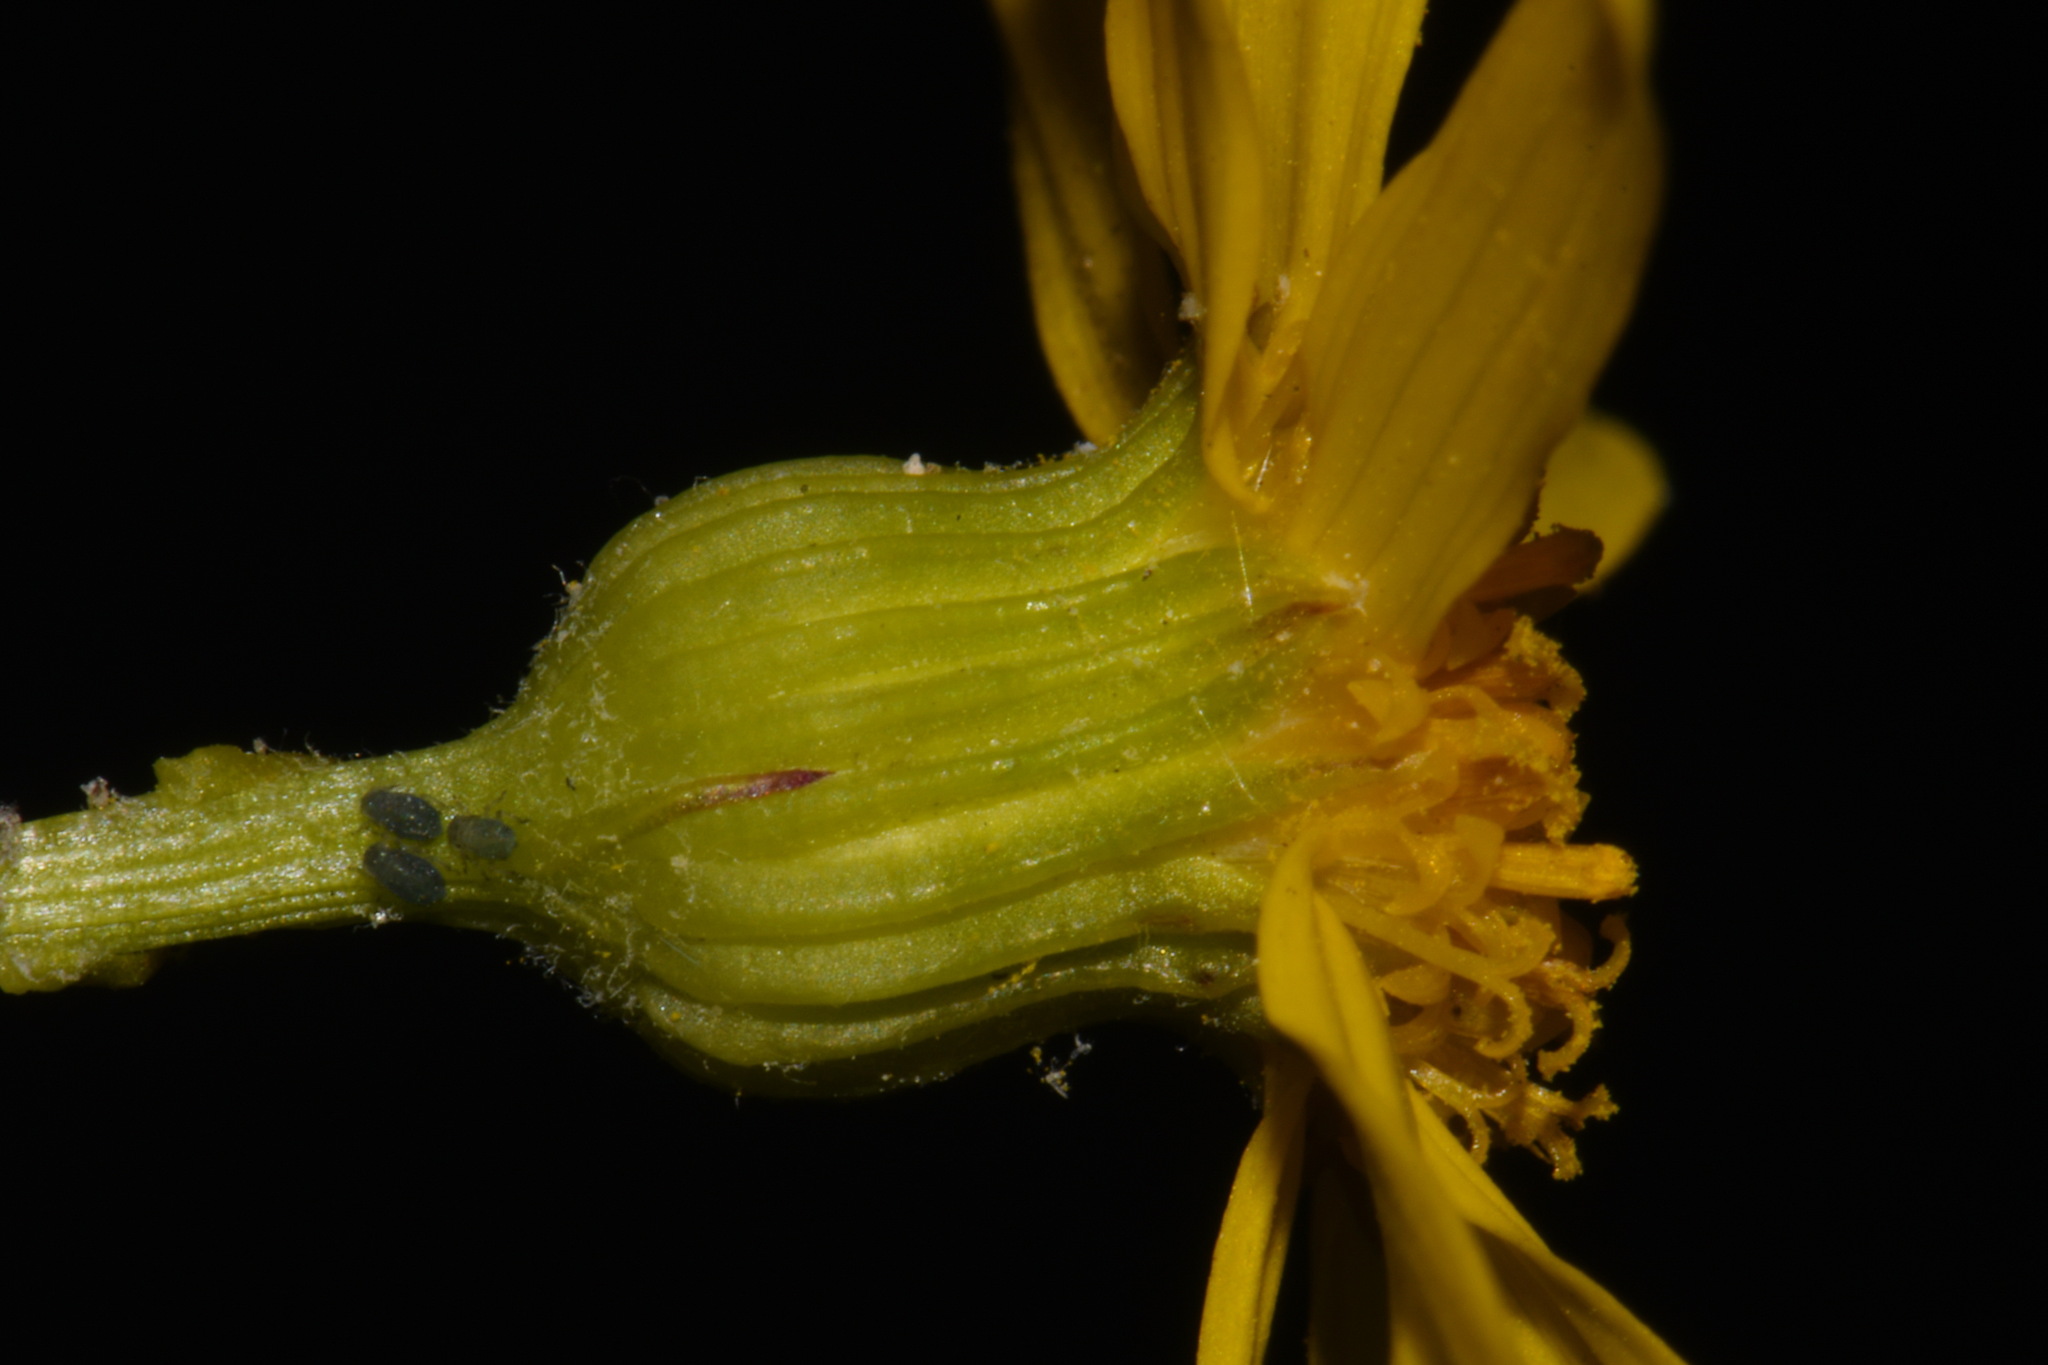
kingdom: Plantae
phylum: Tracheophyta
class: Magnoliopsida
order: Asterales
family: Asteraceae
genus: Packera
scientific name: Packera paupercula
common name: Balsam groundsel
